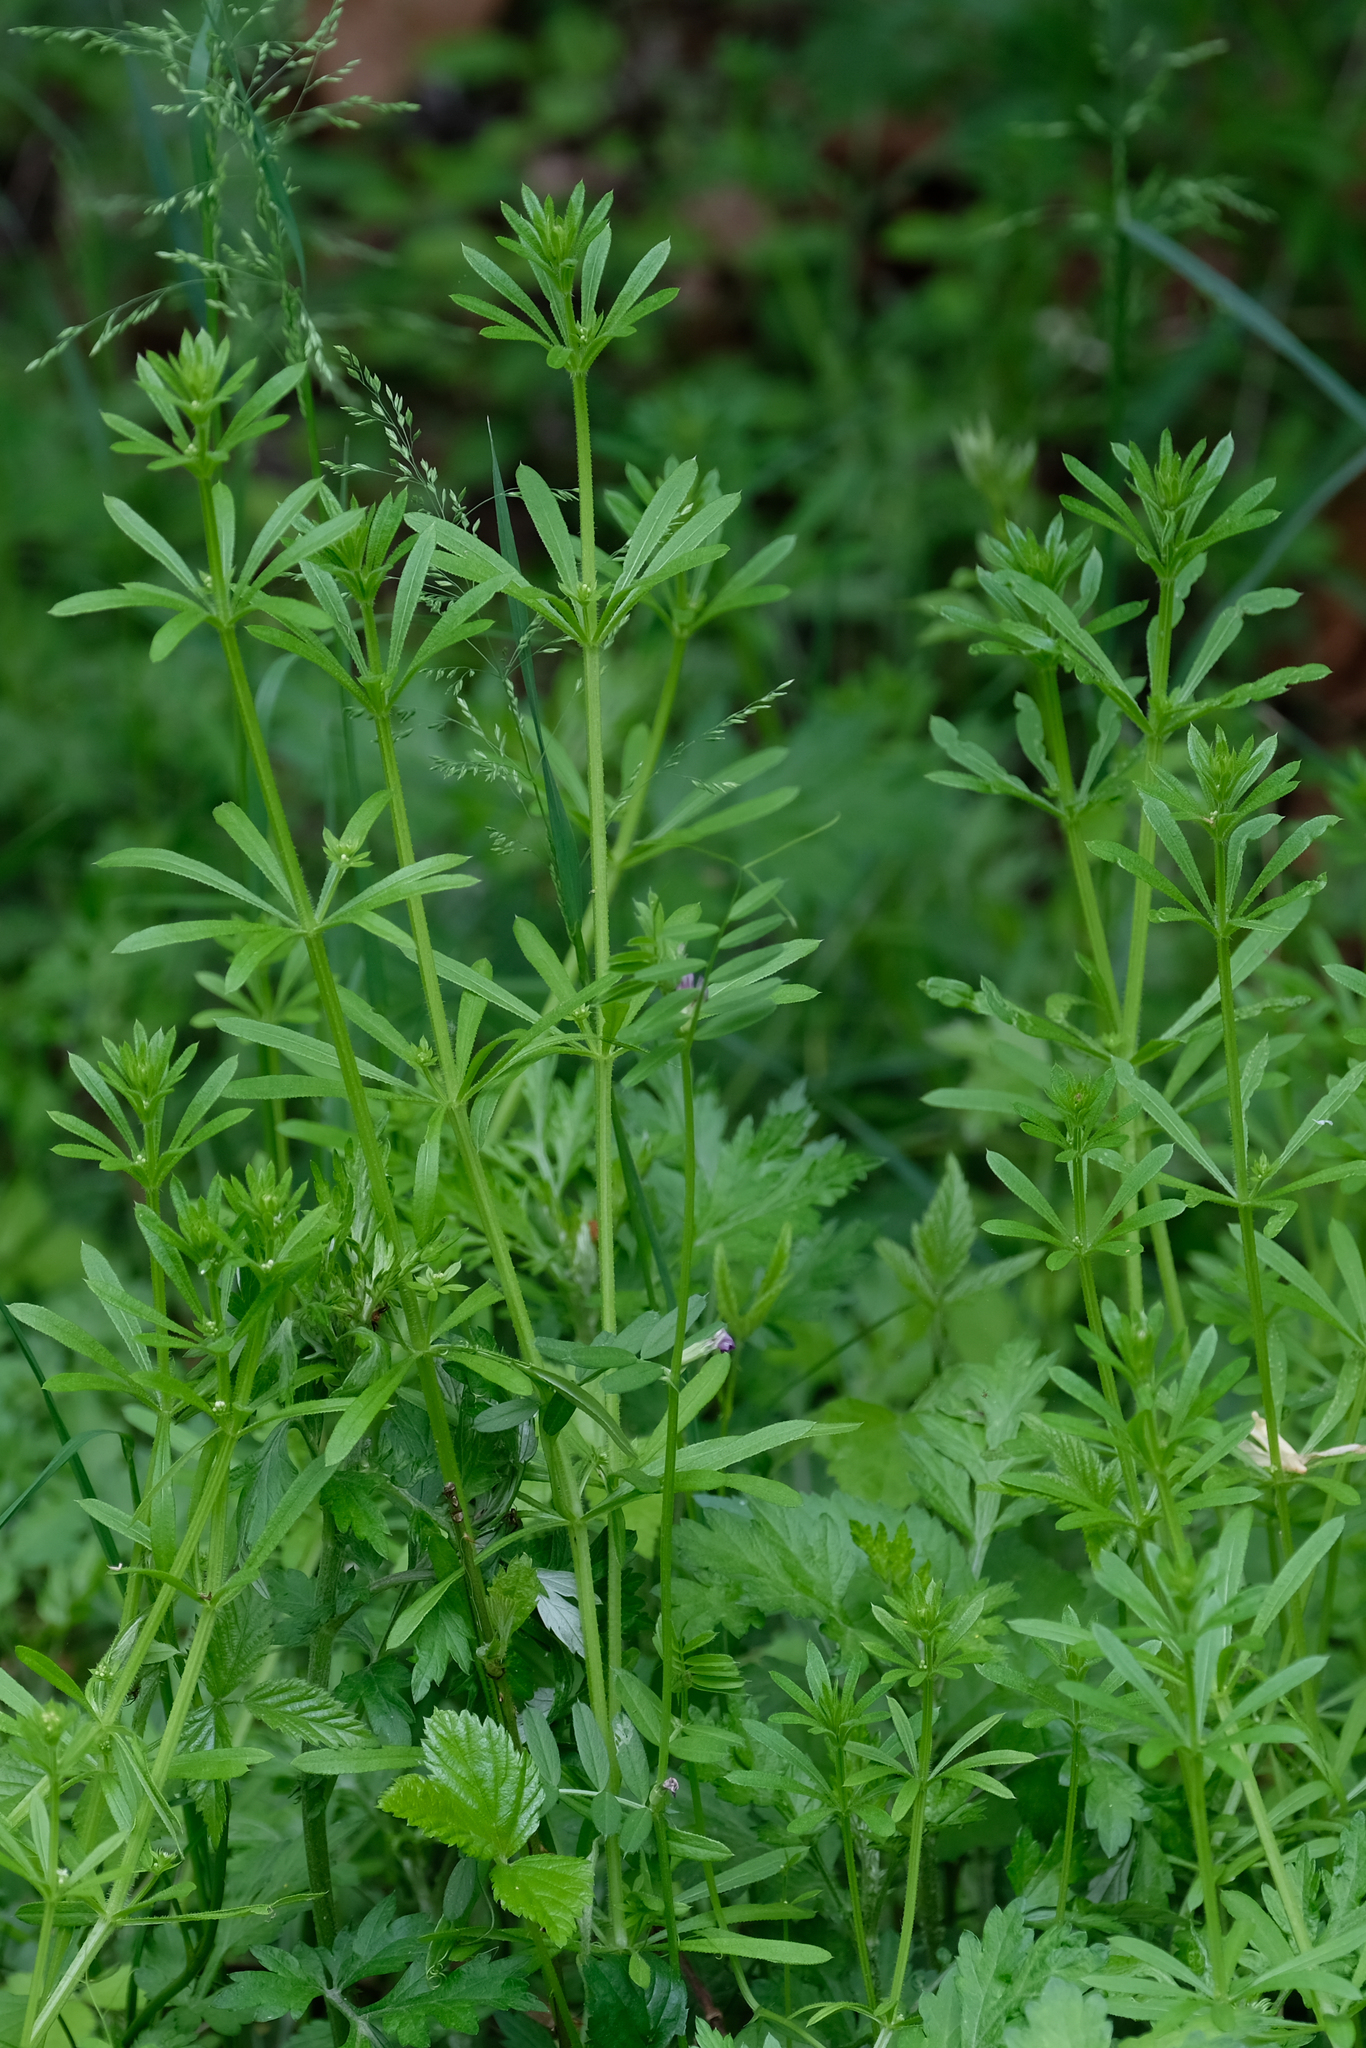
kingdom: Plantae
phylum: Tracheophyta
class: Magnoliopsida
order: Gentianales
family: Rubiaceae
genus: Galium
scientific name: Galium aparine
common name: Cleavers
